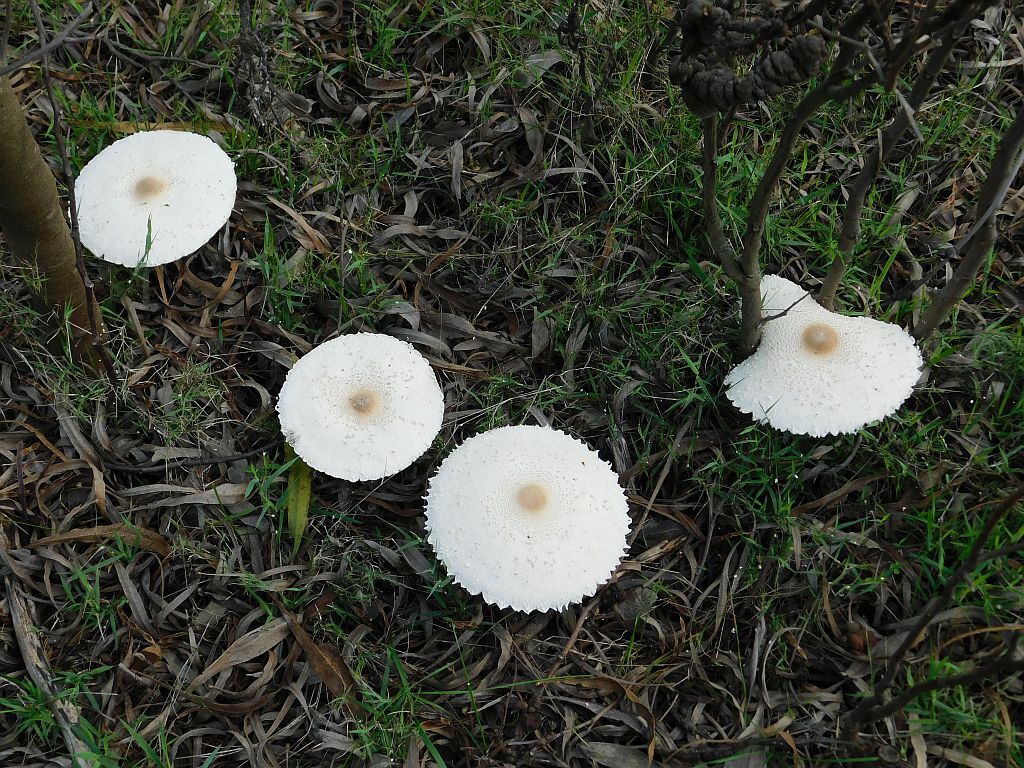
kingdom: Fungi
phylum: Basidiomycota
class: Agaricomycetes
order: Agaricales
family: Agaricaceae
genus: Macrolepiota
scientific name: Macrolepiota zeyheri
